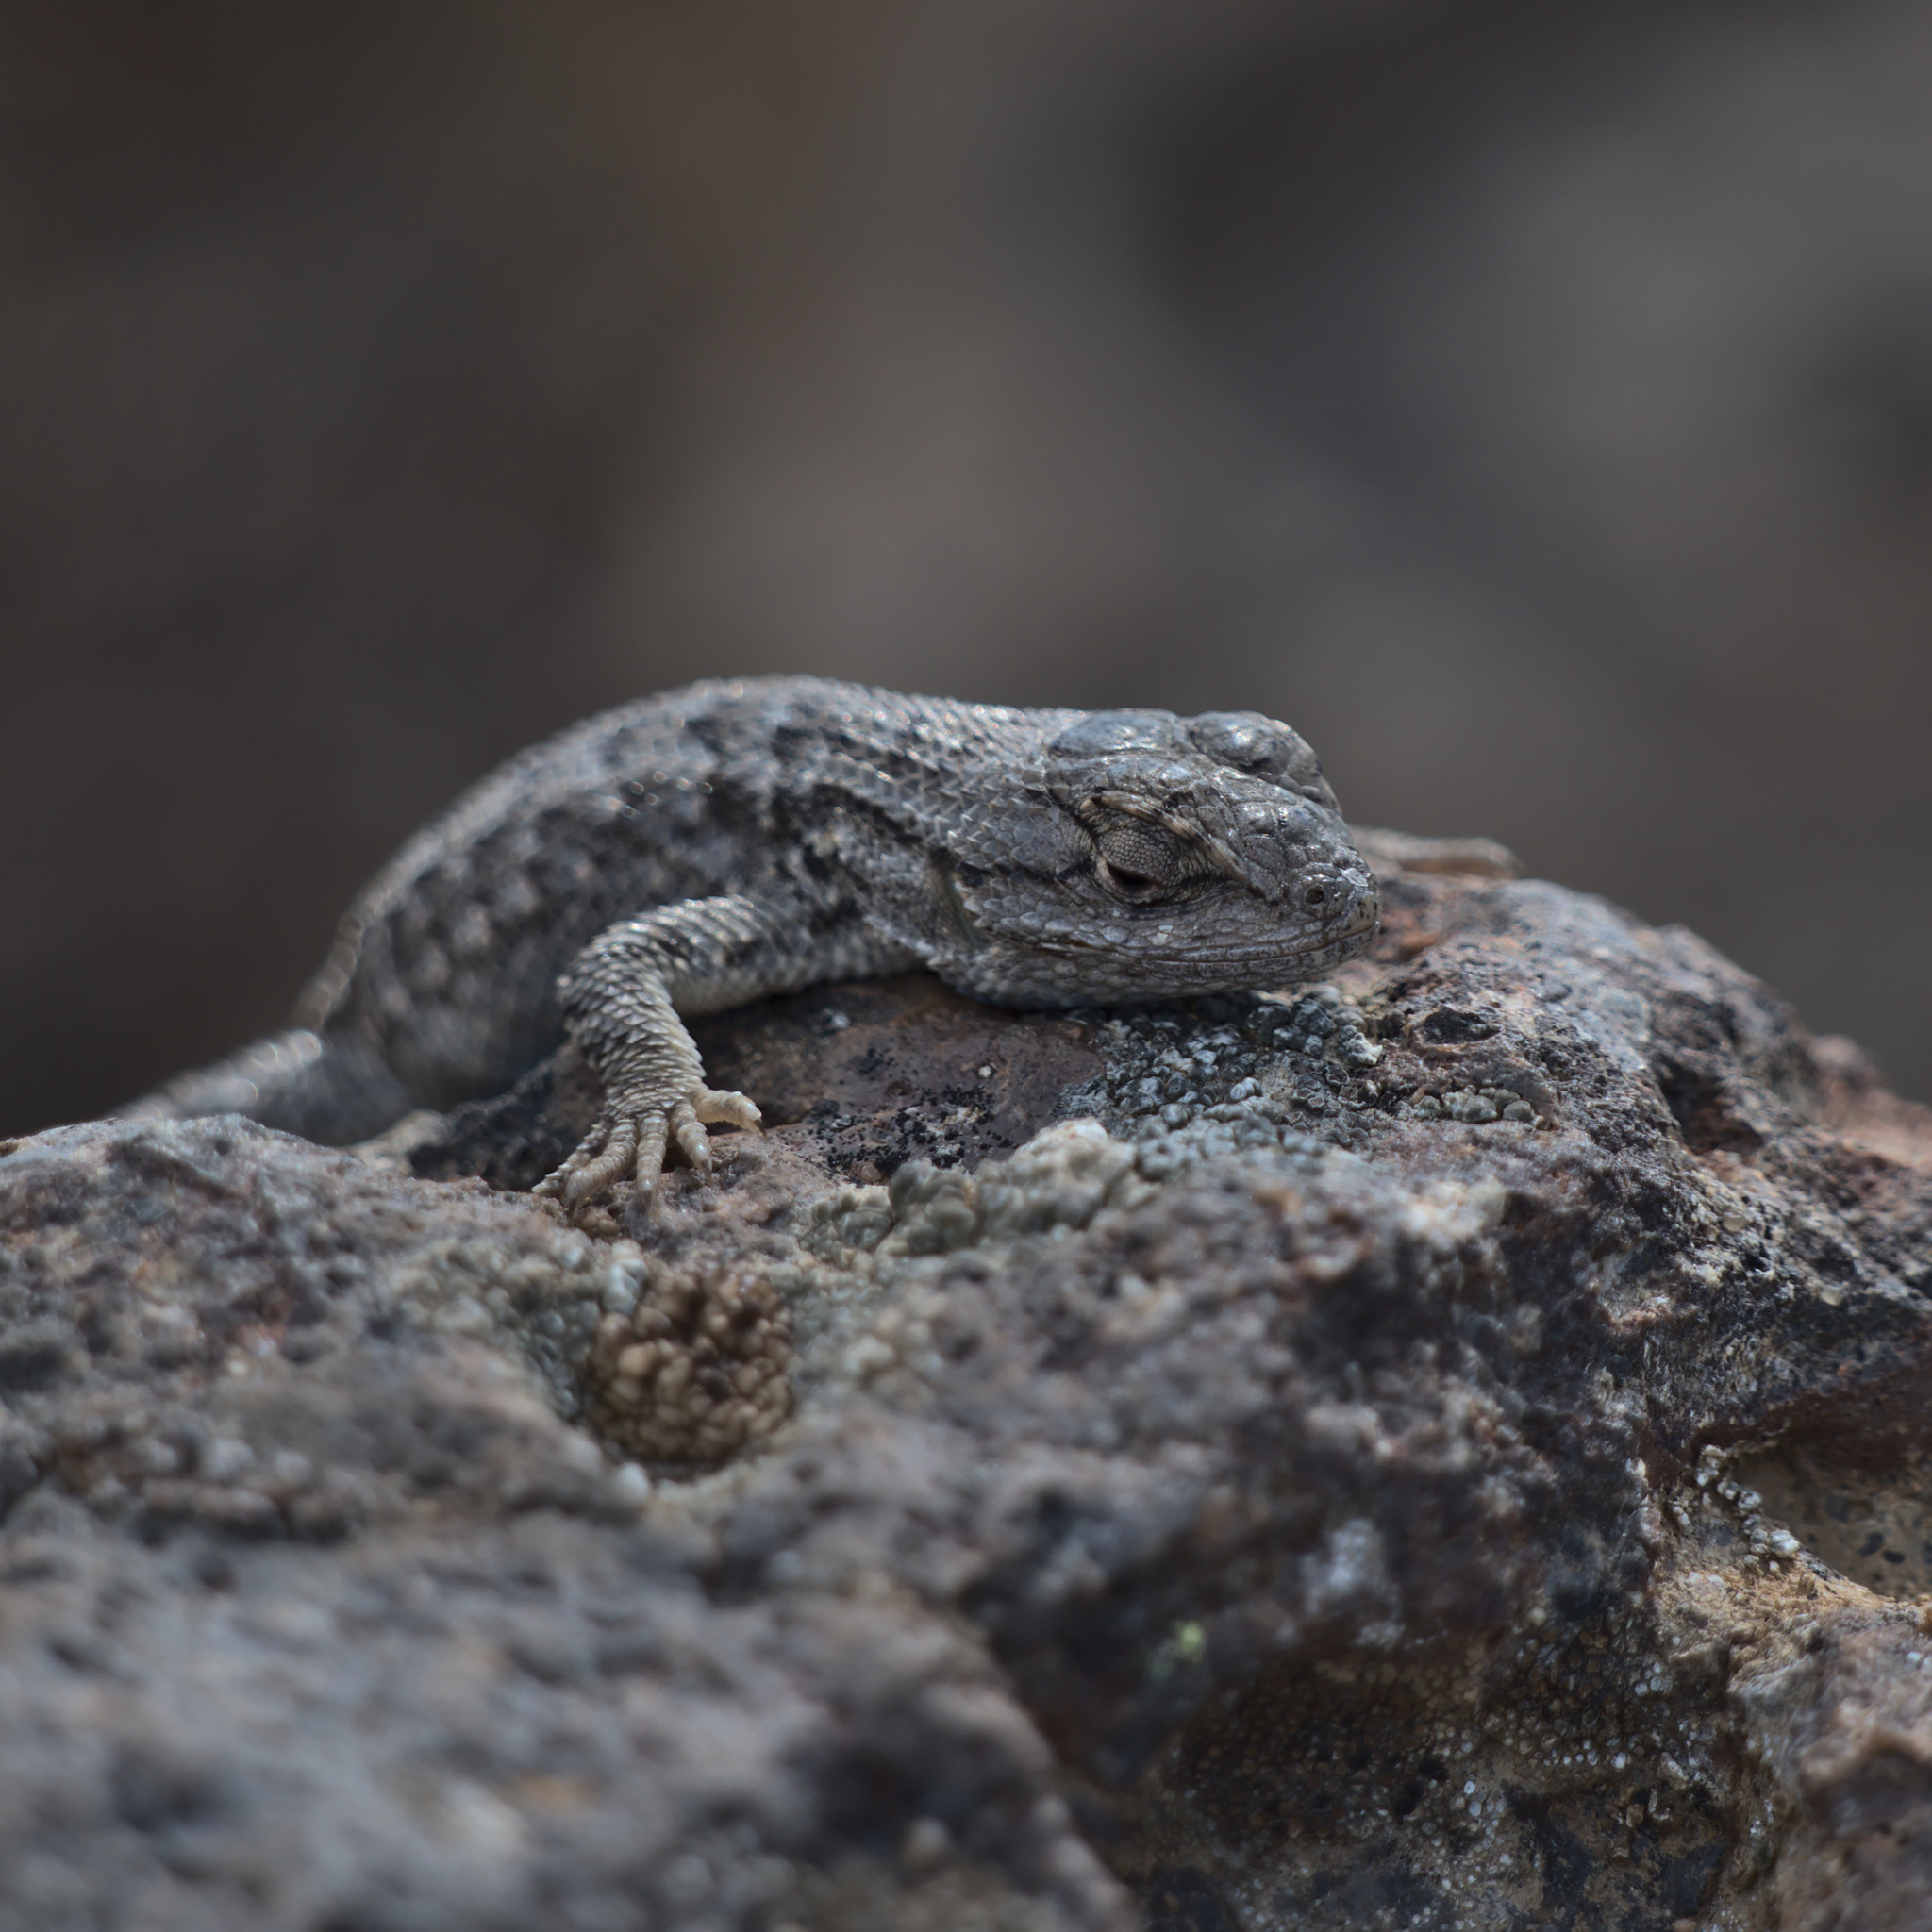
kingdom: Animalia
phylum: Chordata
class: Squamata
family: Phrynosomatidae
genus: Sceloporus
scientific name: Sceloporus occidentalis
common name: Western fence lizard
